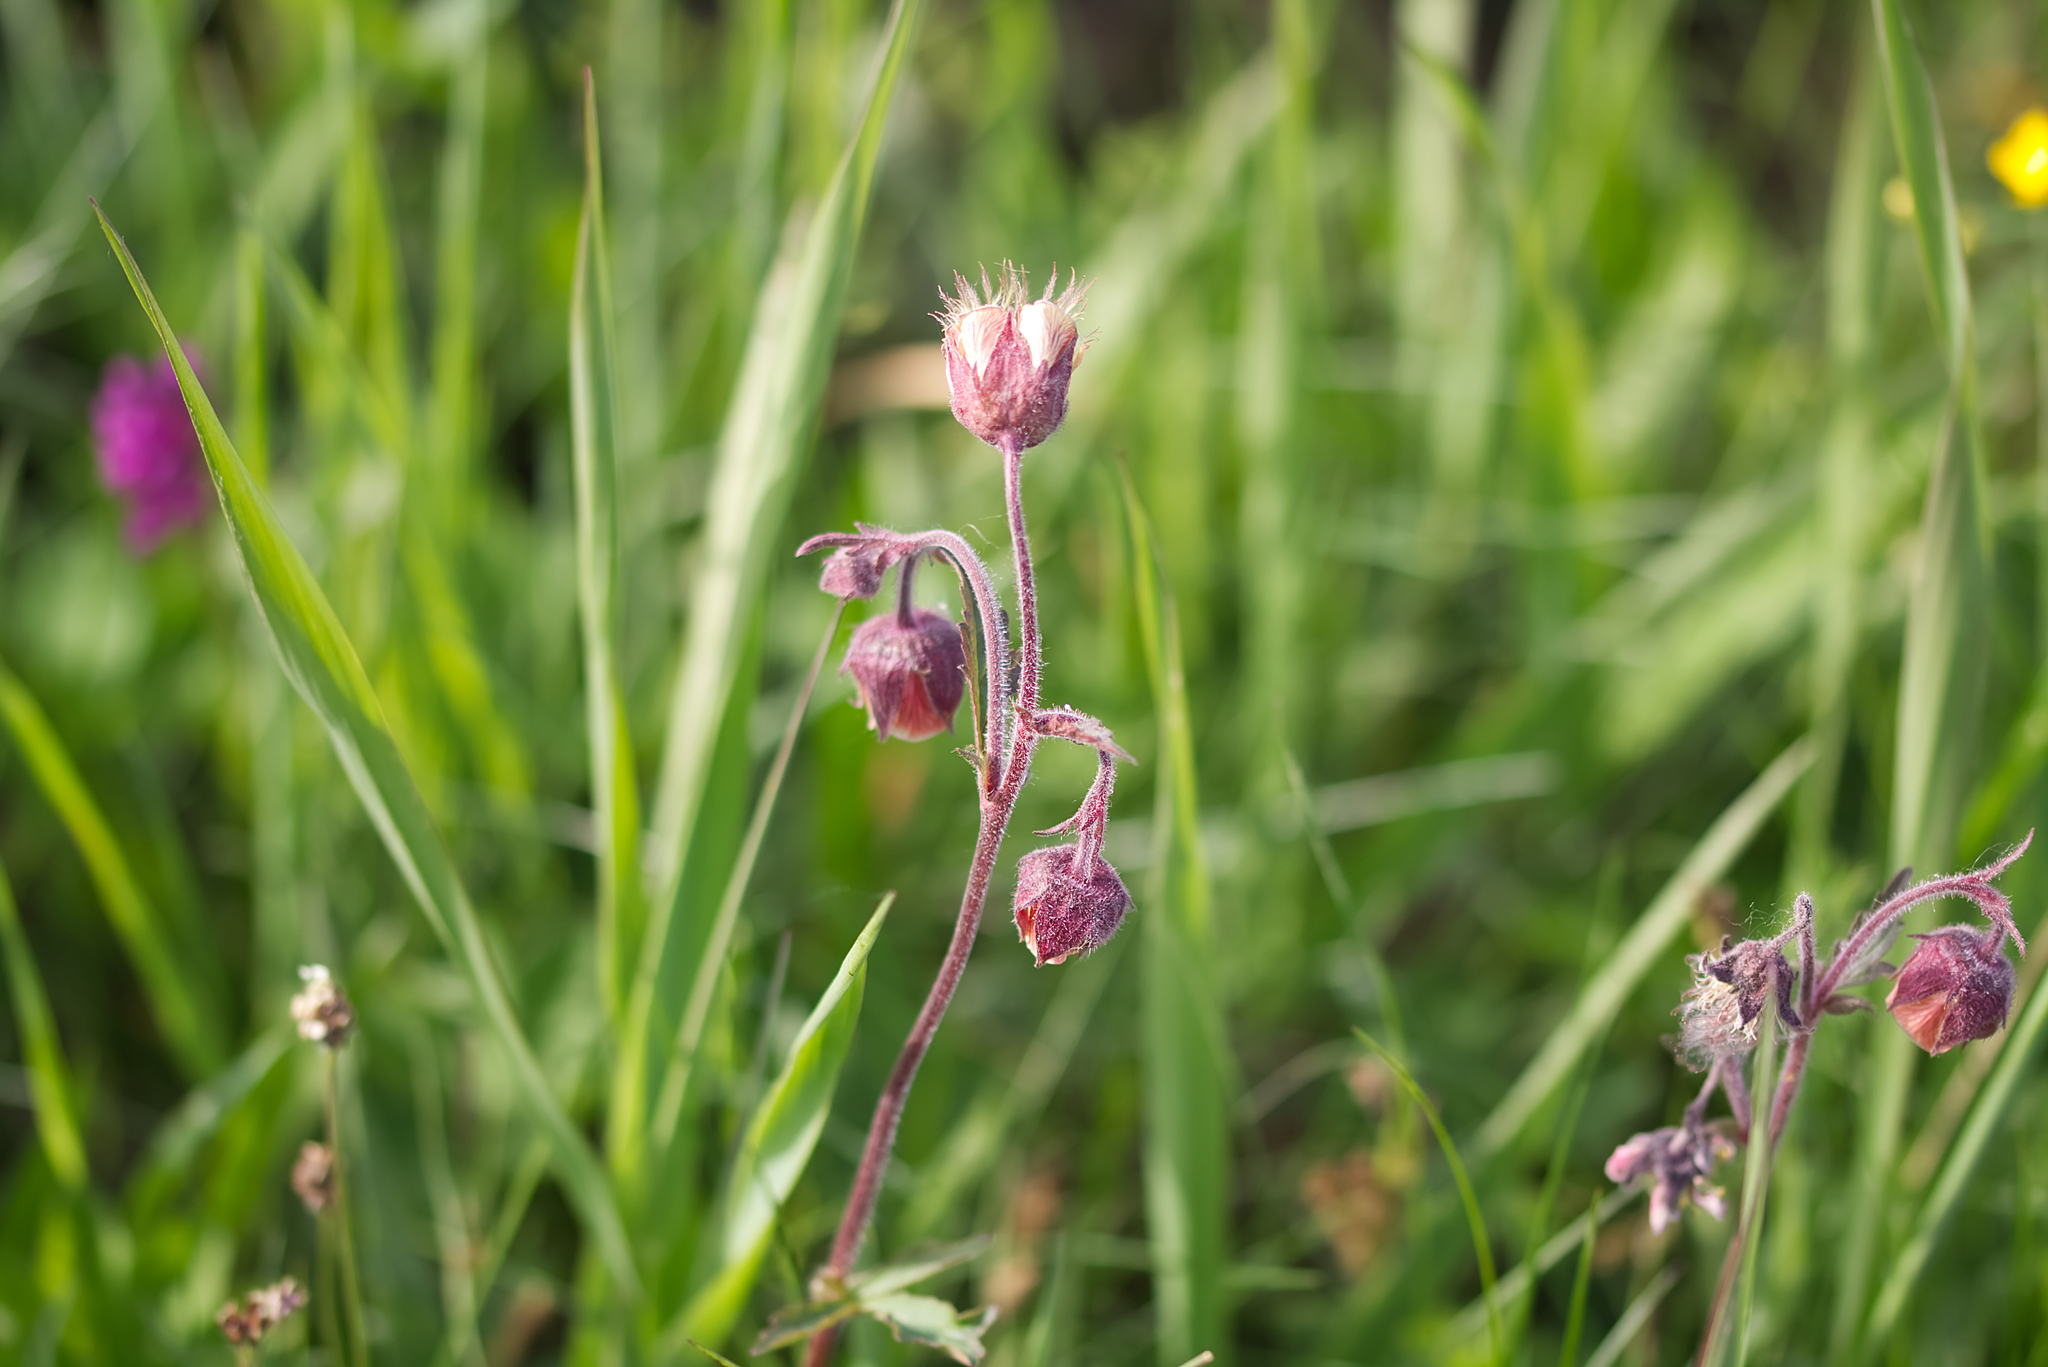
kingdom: Plantae
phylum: Tracheophyta
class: Magnoliopsida
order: Rosales
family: Rosaceae
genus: Geum
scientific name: Geum rivale
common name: Water avens
